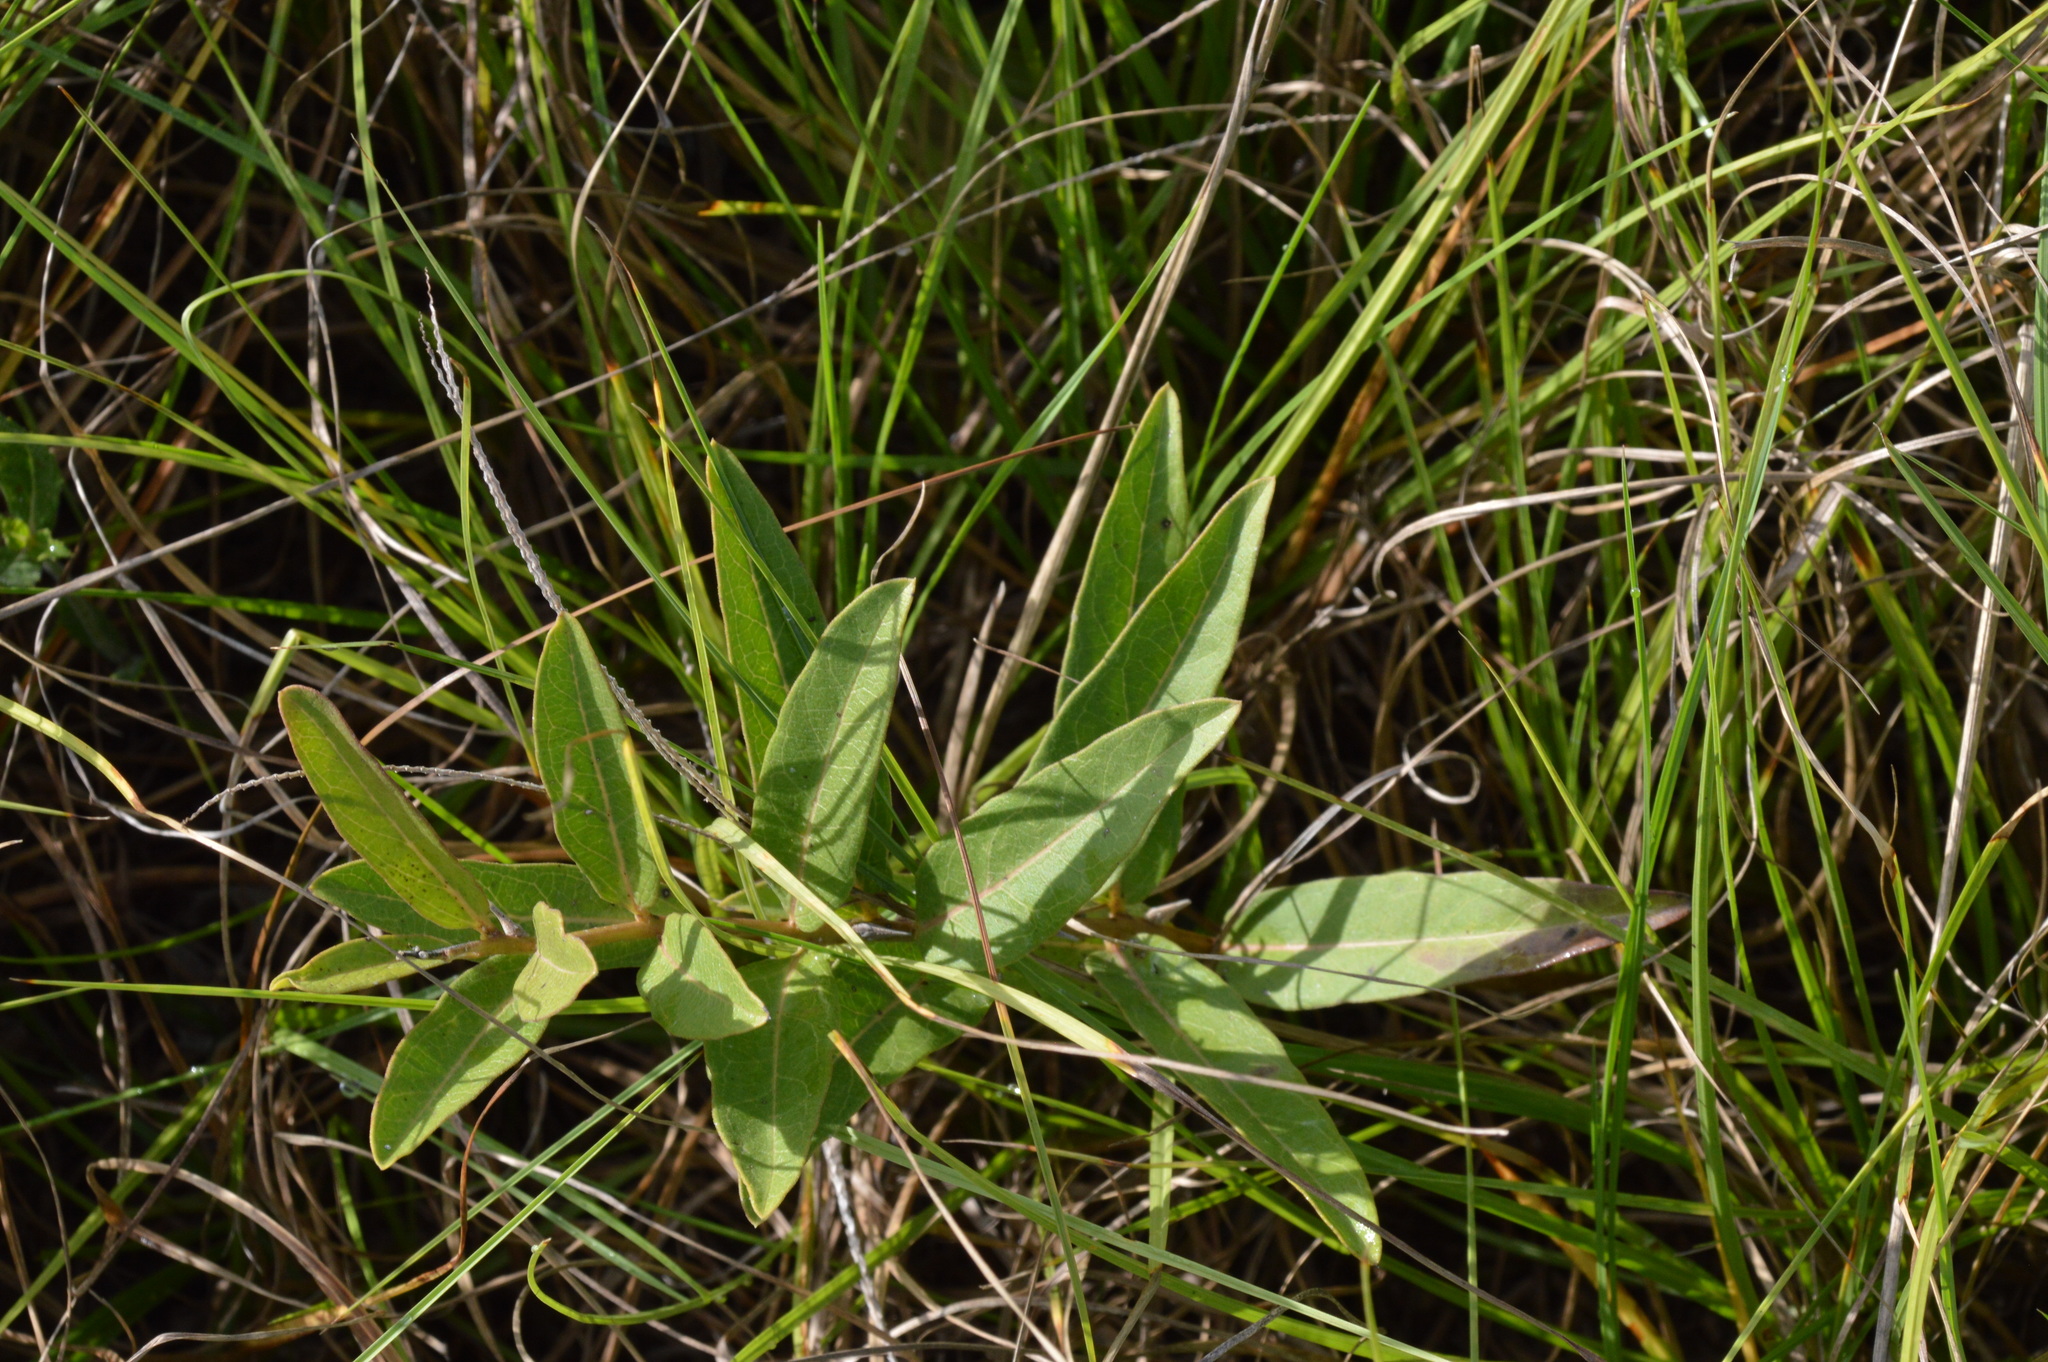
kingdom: Plantae
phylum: Tracheophyta
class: Magnoliopsida
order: Gentianales
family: Apocynaceae
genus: Asclepias
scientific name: Asclepias viridis
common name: Antelope-horns
